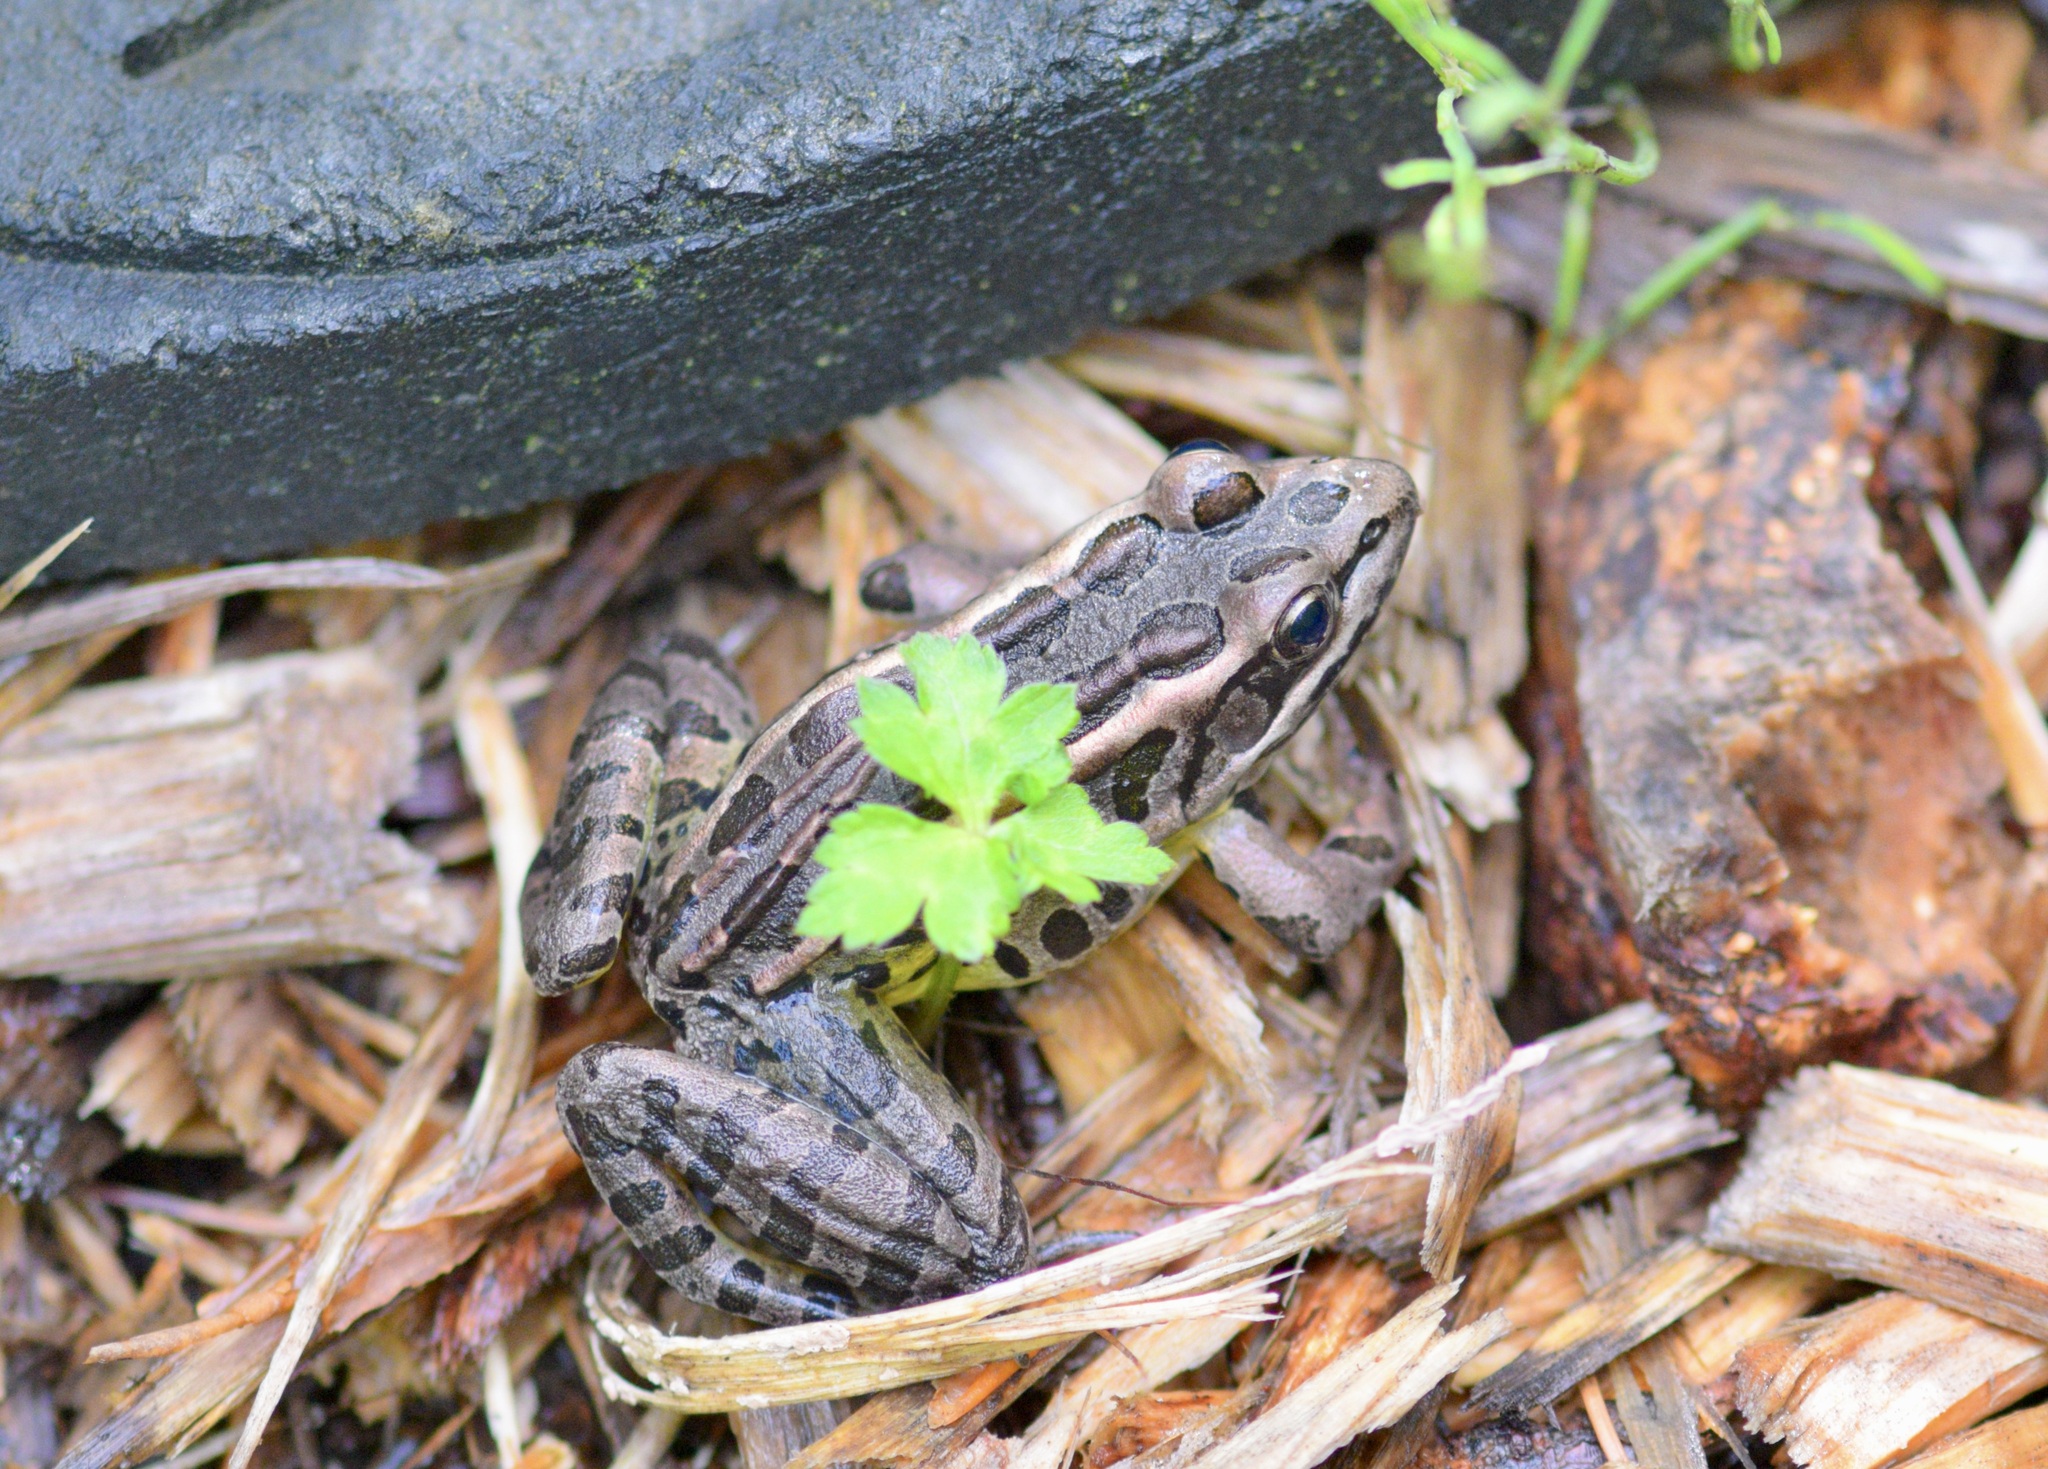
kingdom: Animalia
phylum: Chordata
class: Amphibia
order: Anura
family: Ranidae
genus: Lithobates
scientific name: Lithobates palustris
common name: Pickerel frog
